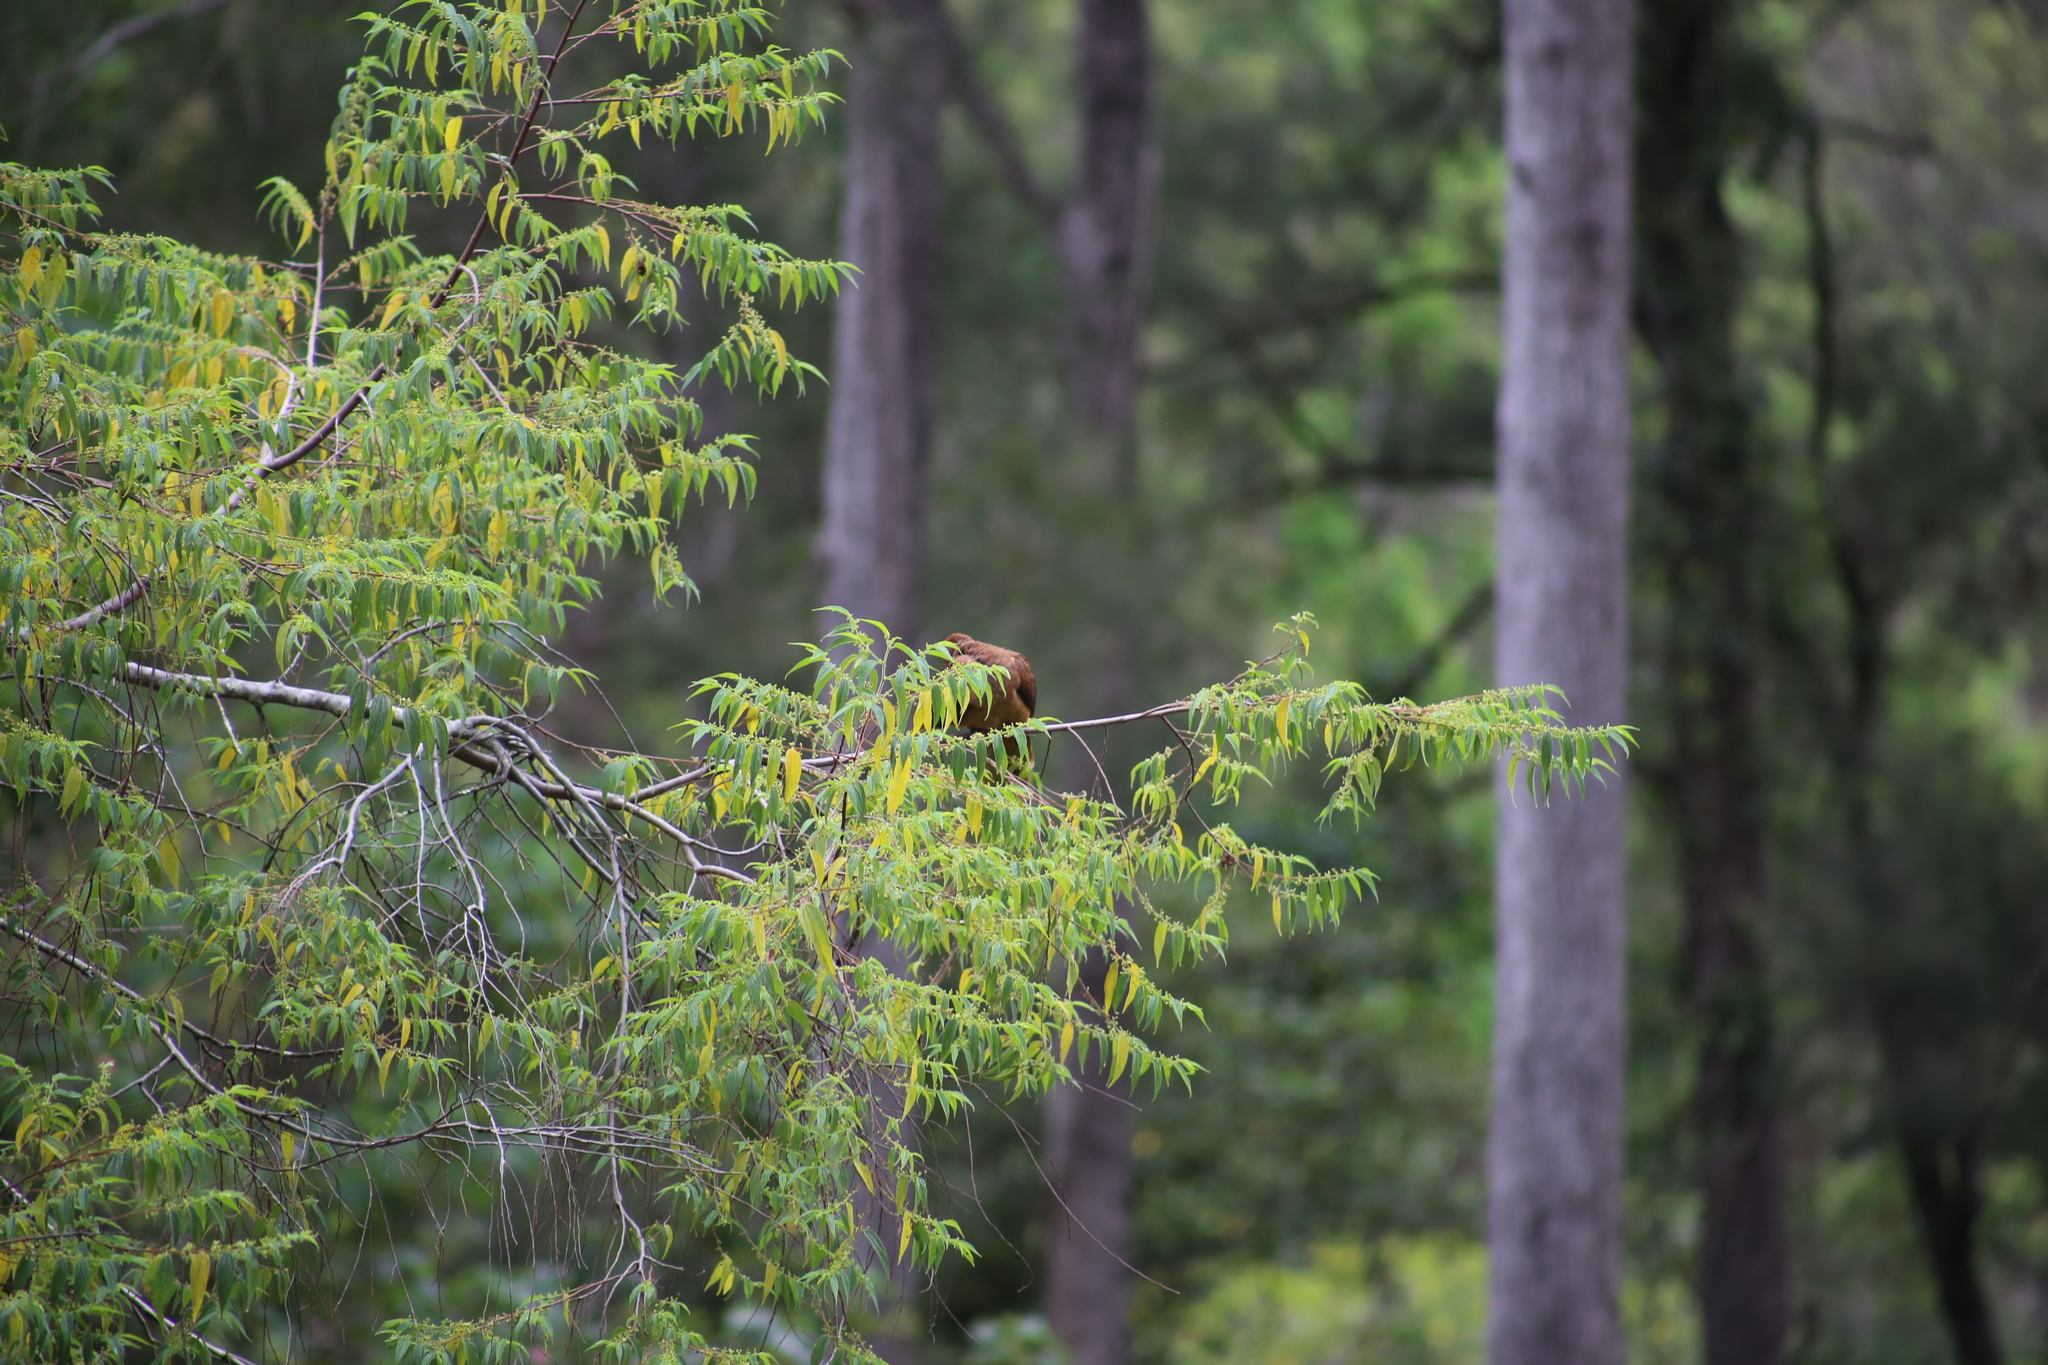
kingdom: Animalia
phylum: Chordata
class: Aves
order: Columbiformes
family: Columbidae
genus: Macropygia
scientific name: Macropygia phasianella
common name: Brown cuckoo-dove
